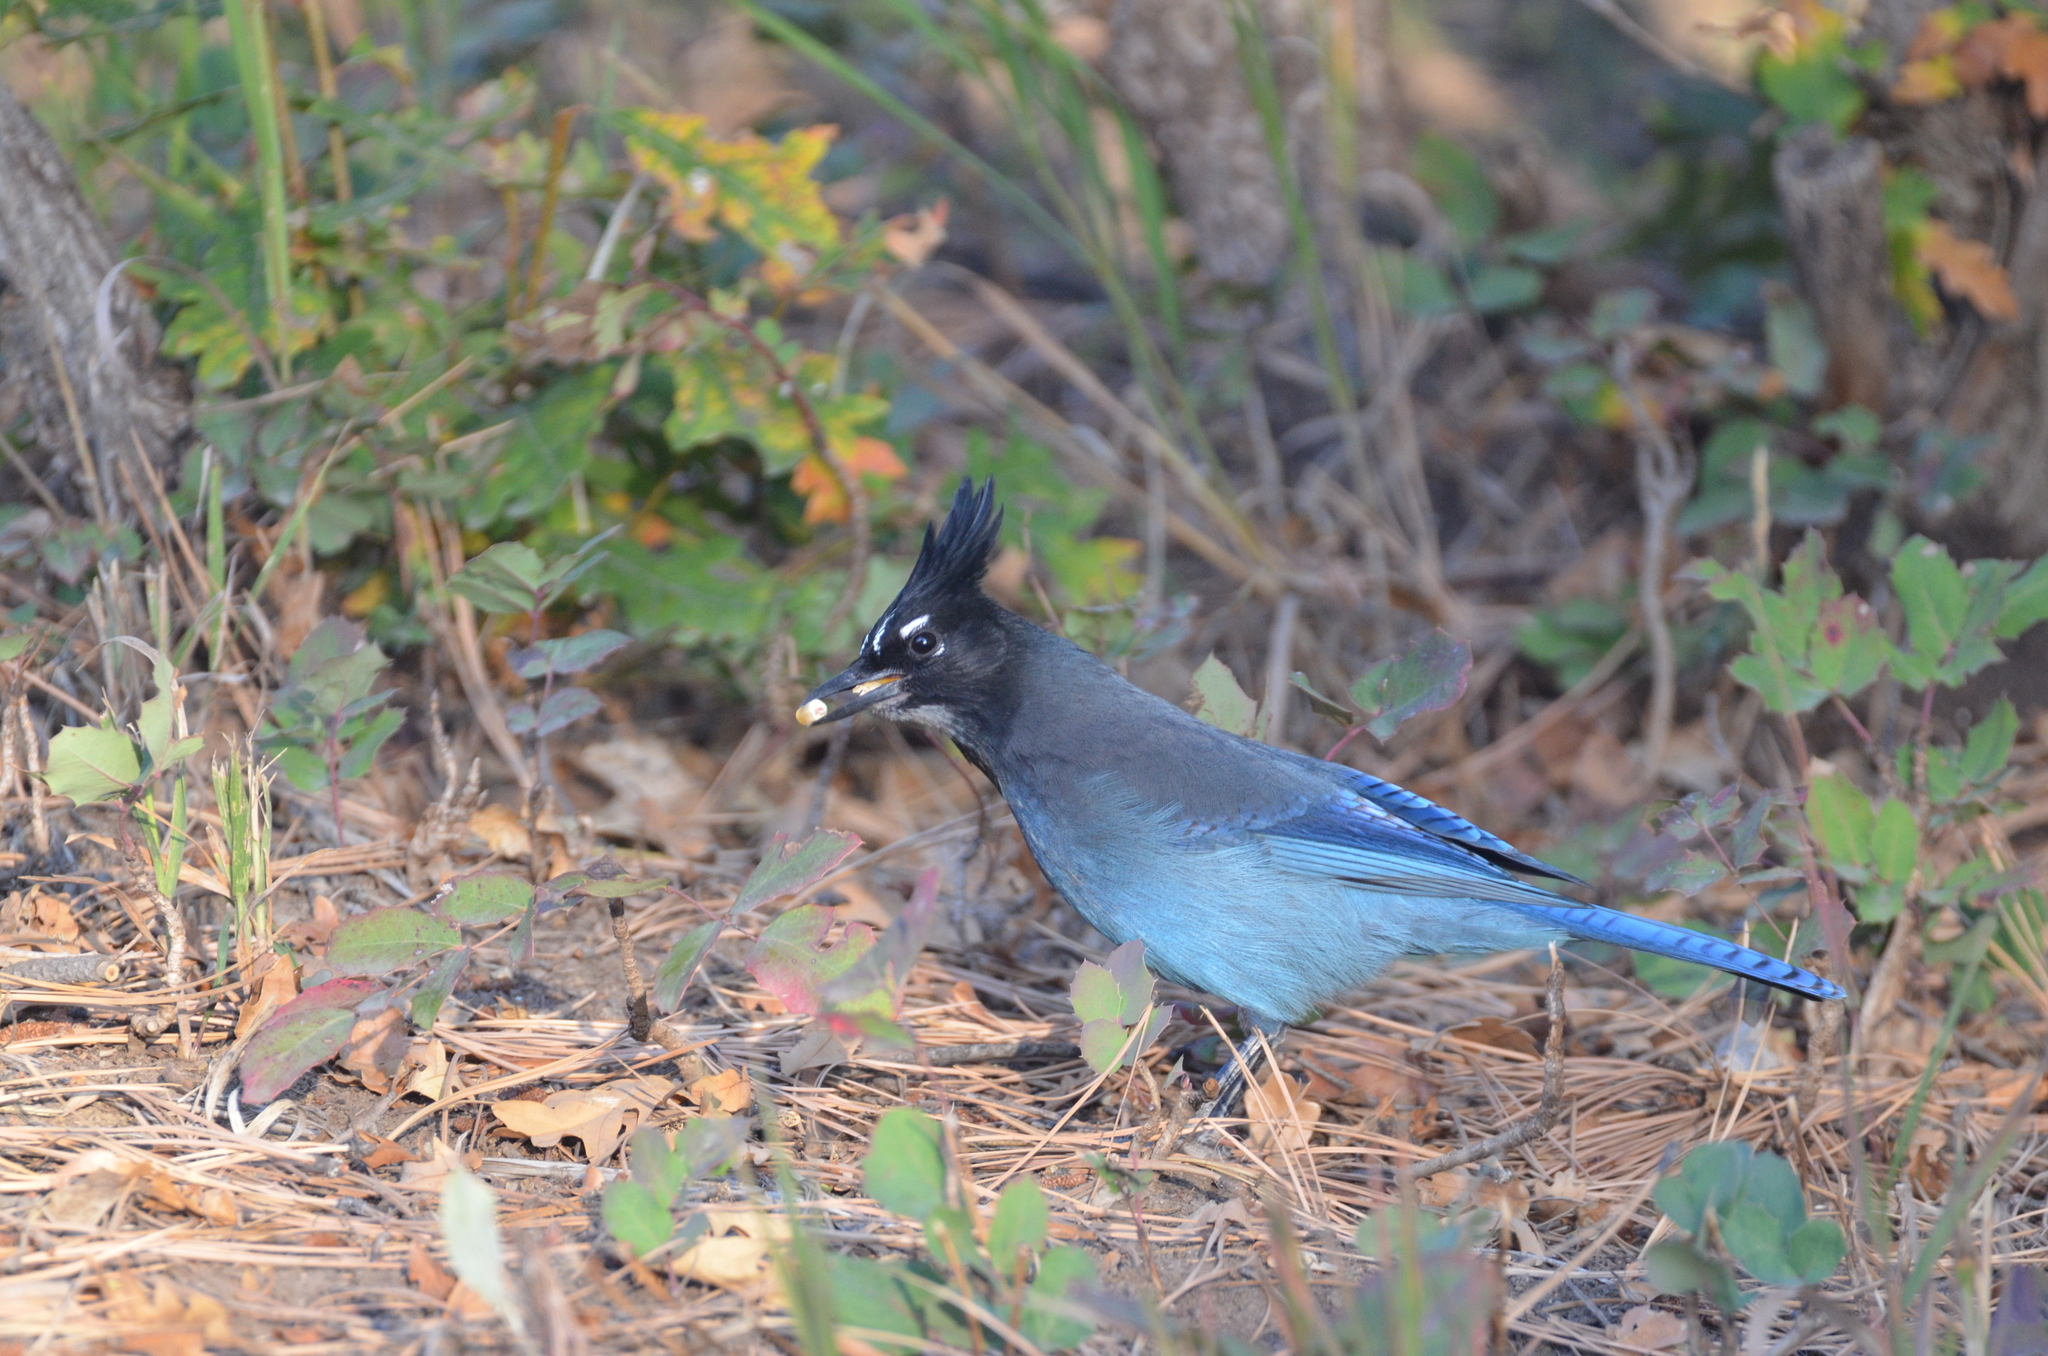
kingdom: Animalia
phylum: Chordata
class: Aves
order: Passeriformes
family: Corvidae
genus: Cyanocitta
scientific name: Cyanocitta stelleri
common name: Steller's jay
